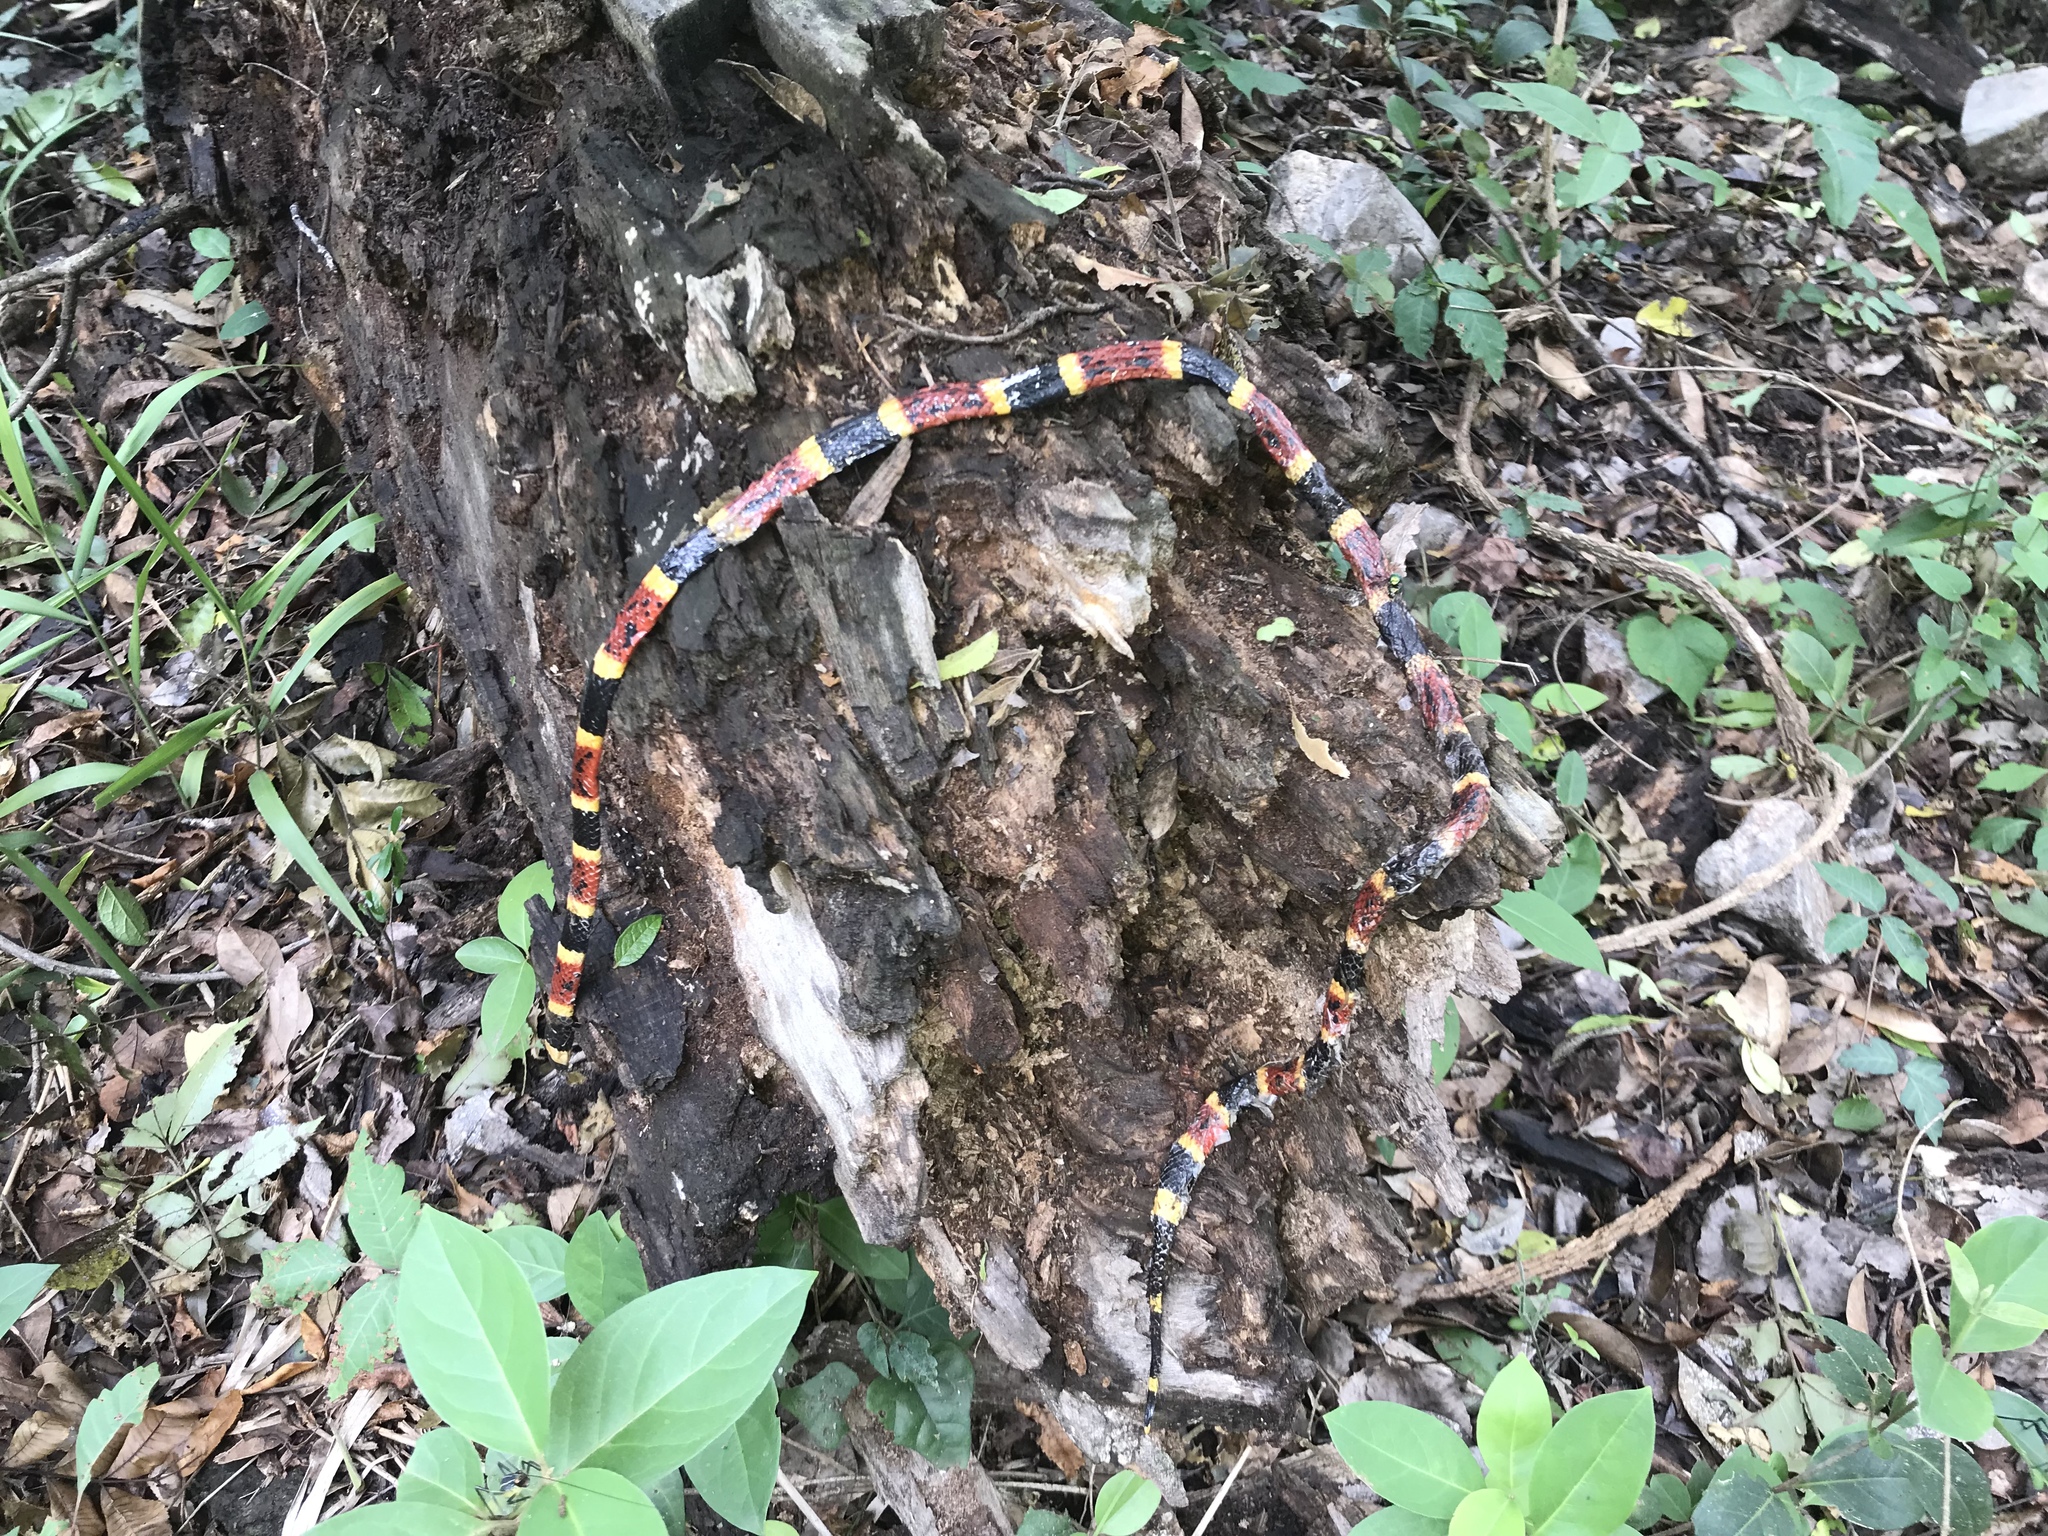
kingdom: Animalia
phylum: Chordata
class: Squamata
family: Elapidae
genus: Micrurus
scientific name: Micrurus tener
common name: Texas coral snake
